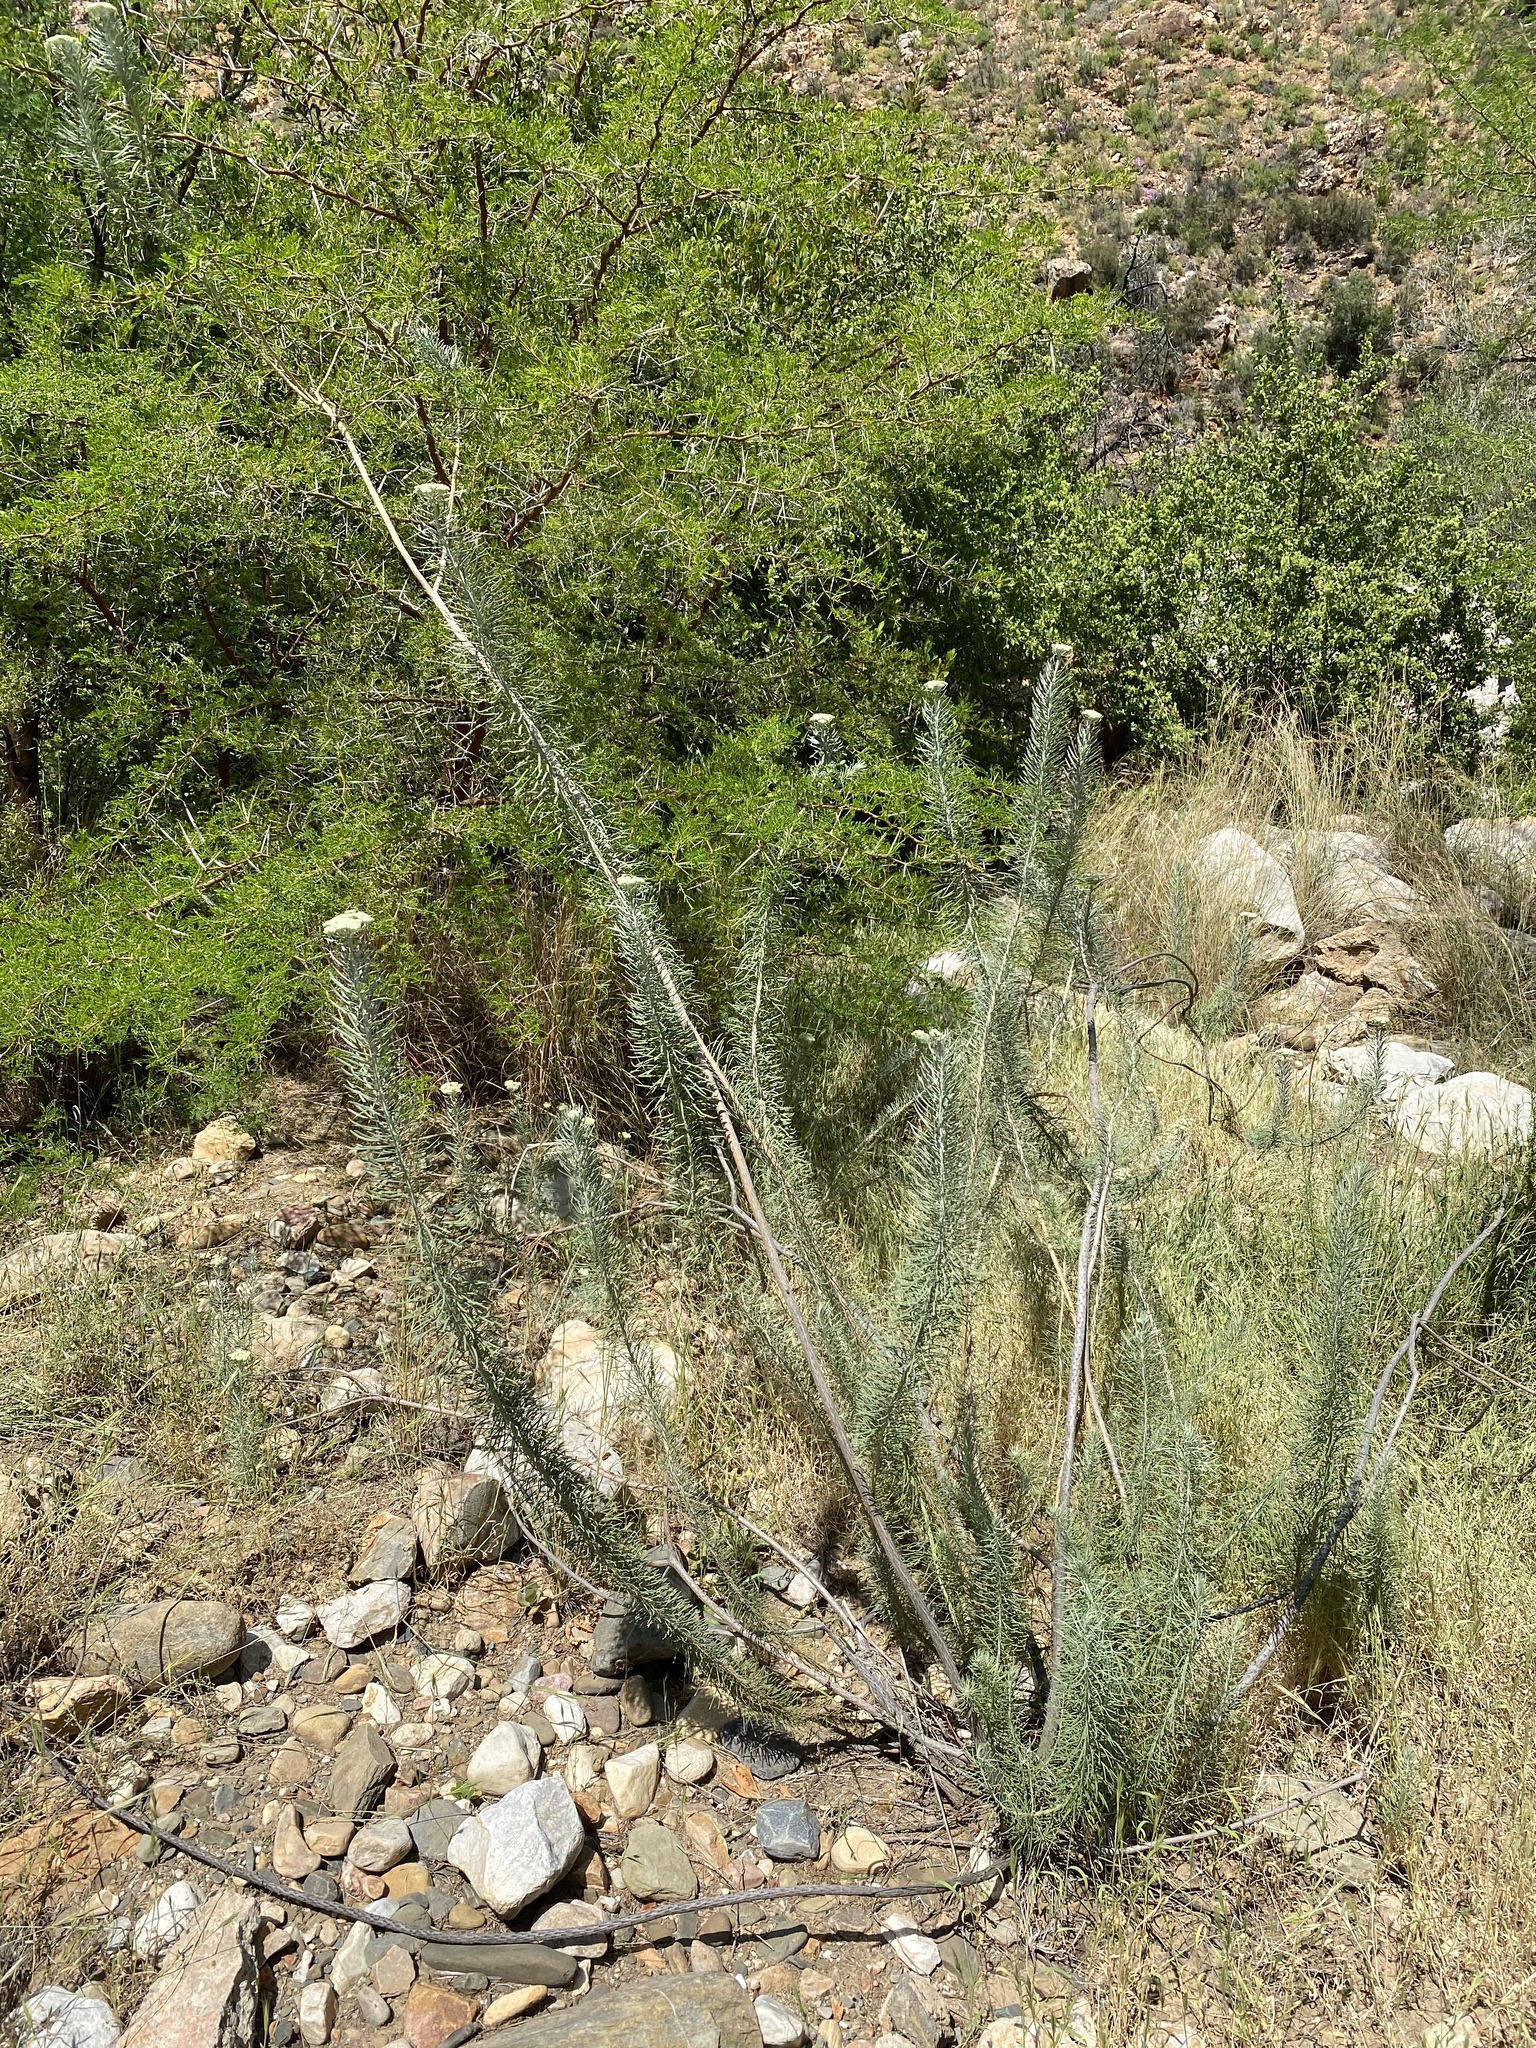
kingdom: Plantae
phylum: Tracheophyta
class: Magnoliopsida
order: Asterales
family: Asteraceae
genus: Athanasia
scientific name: Athanasia tomentosa
